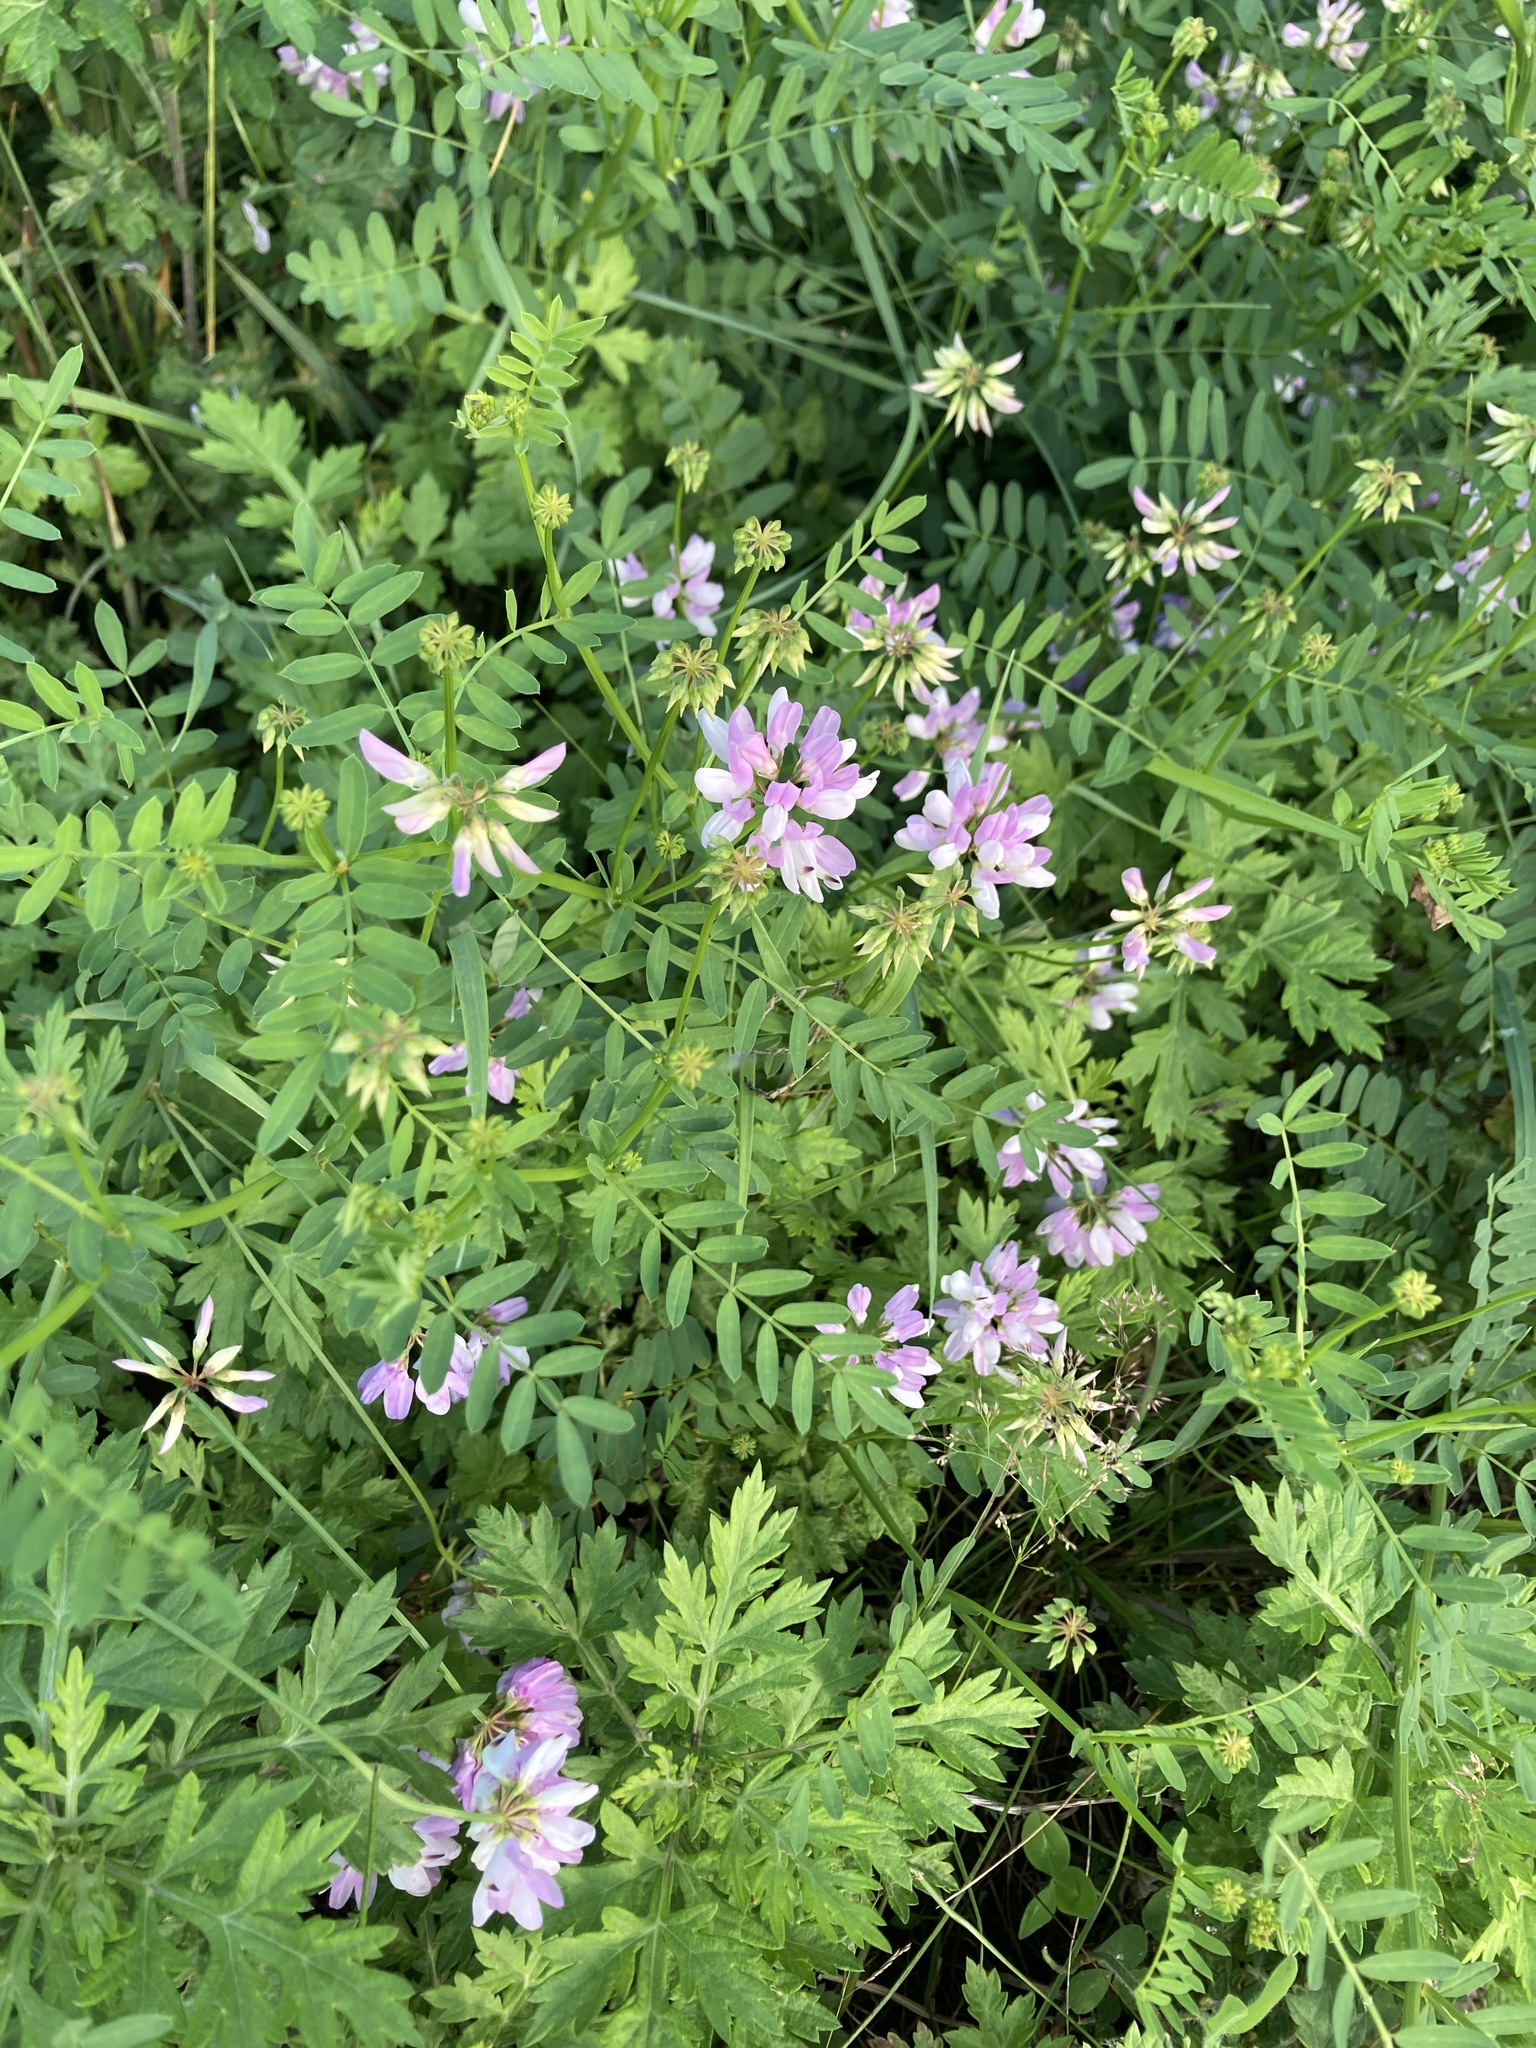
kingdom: Plantae
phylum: Tracheophyta
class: Magnoliopsida
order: Fabales
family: Fabaceae
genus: Coronilla
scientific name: Coronilla varia
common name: Crownvetch
